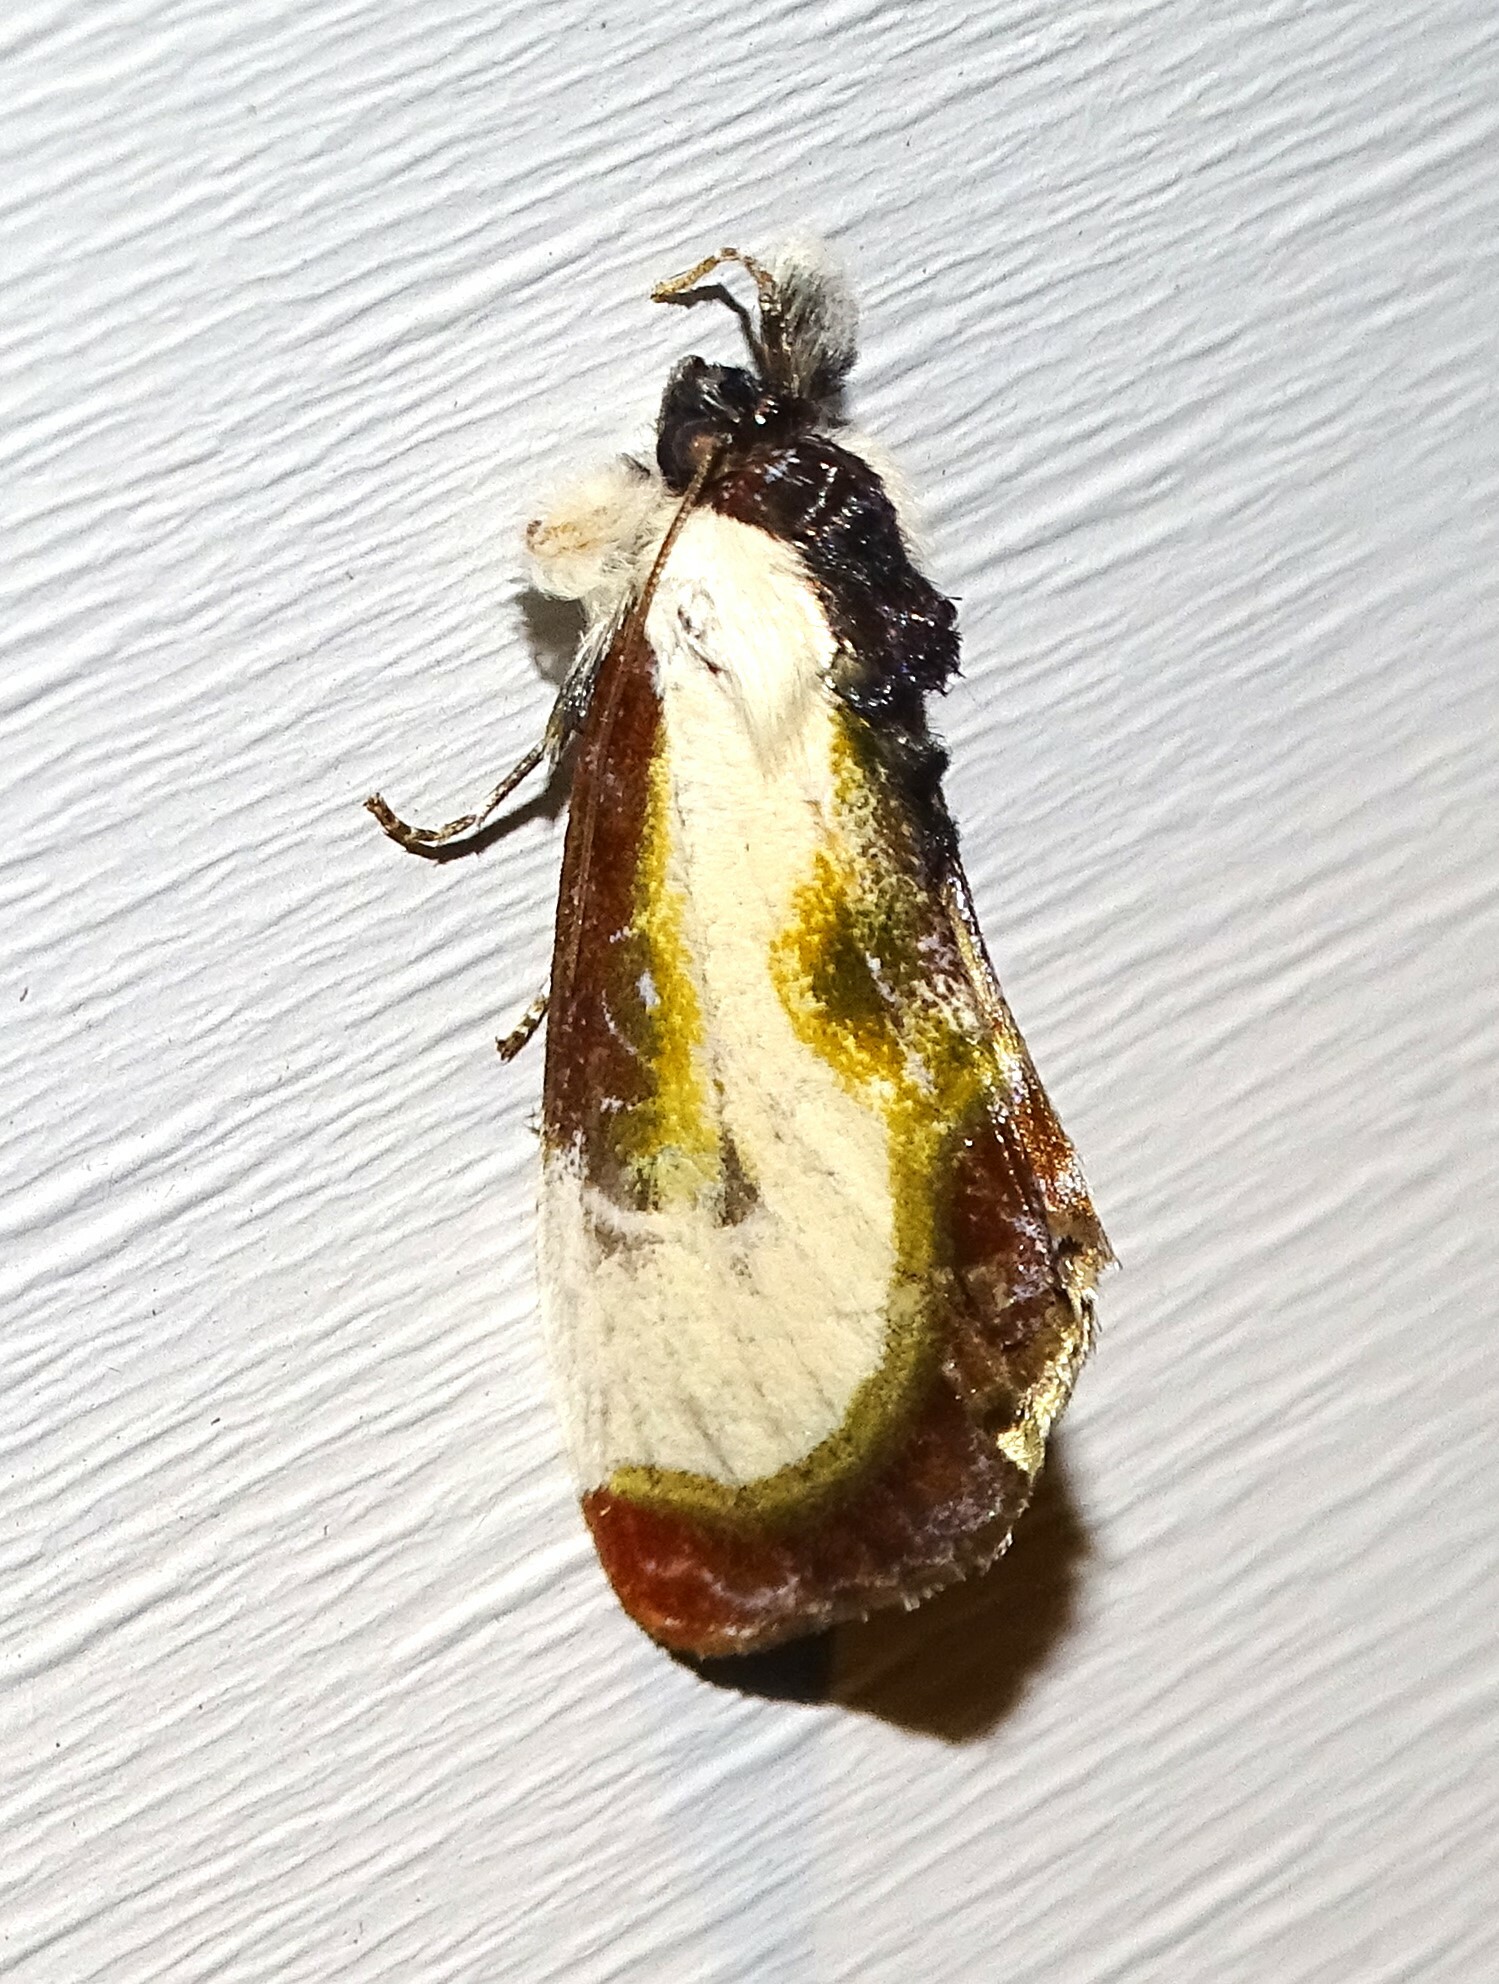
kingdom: Animalia
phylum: Arthropoda
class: Insecta
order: Lepidoptera
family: Noctuidae
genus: Eudryas
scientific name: Eudryas grata
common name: Beautiful wood-nymph
